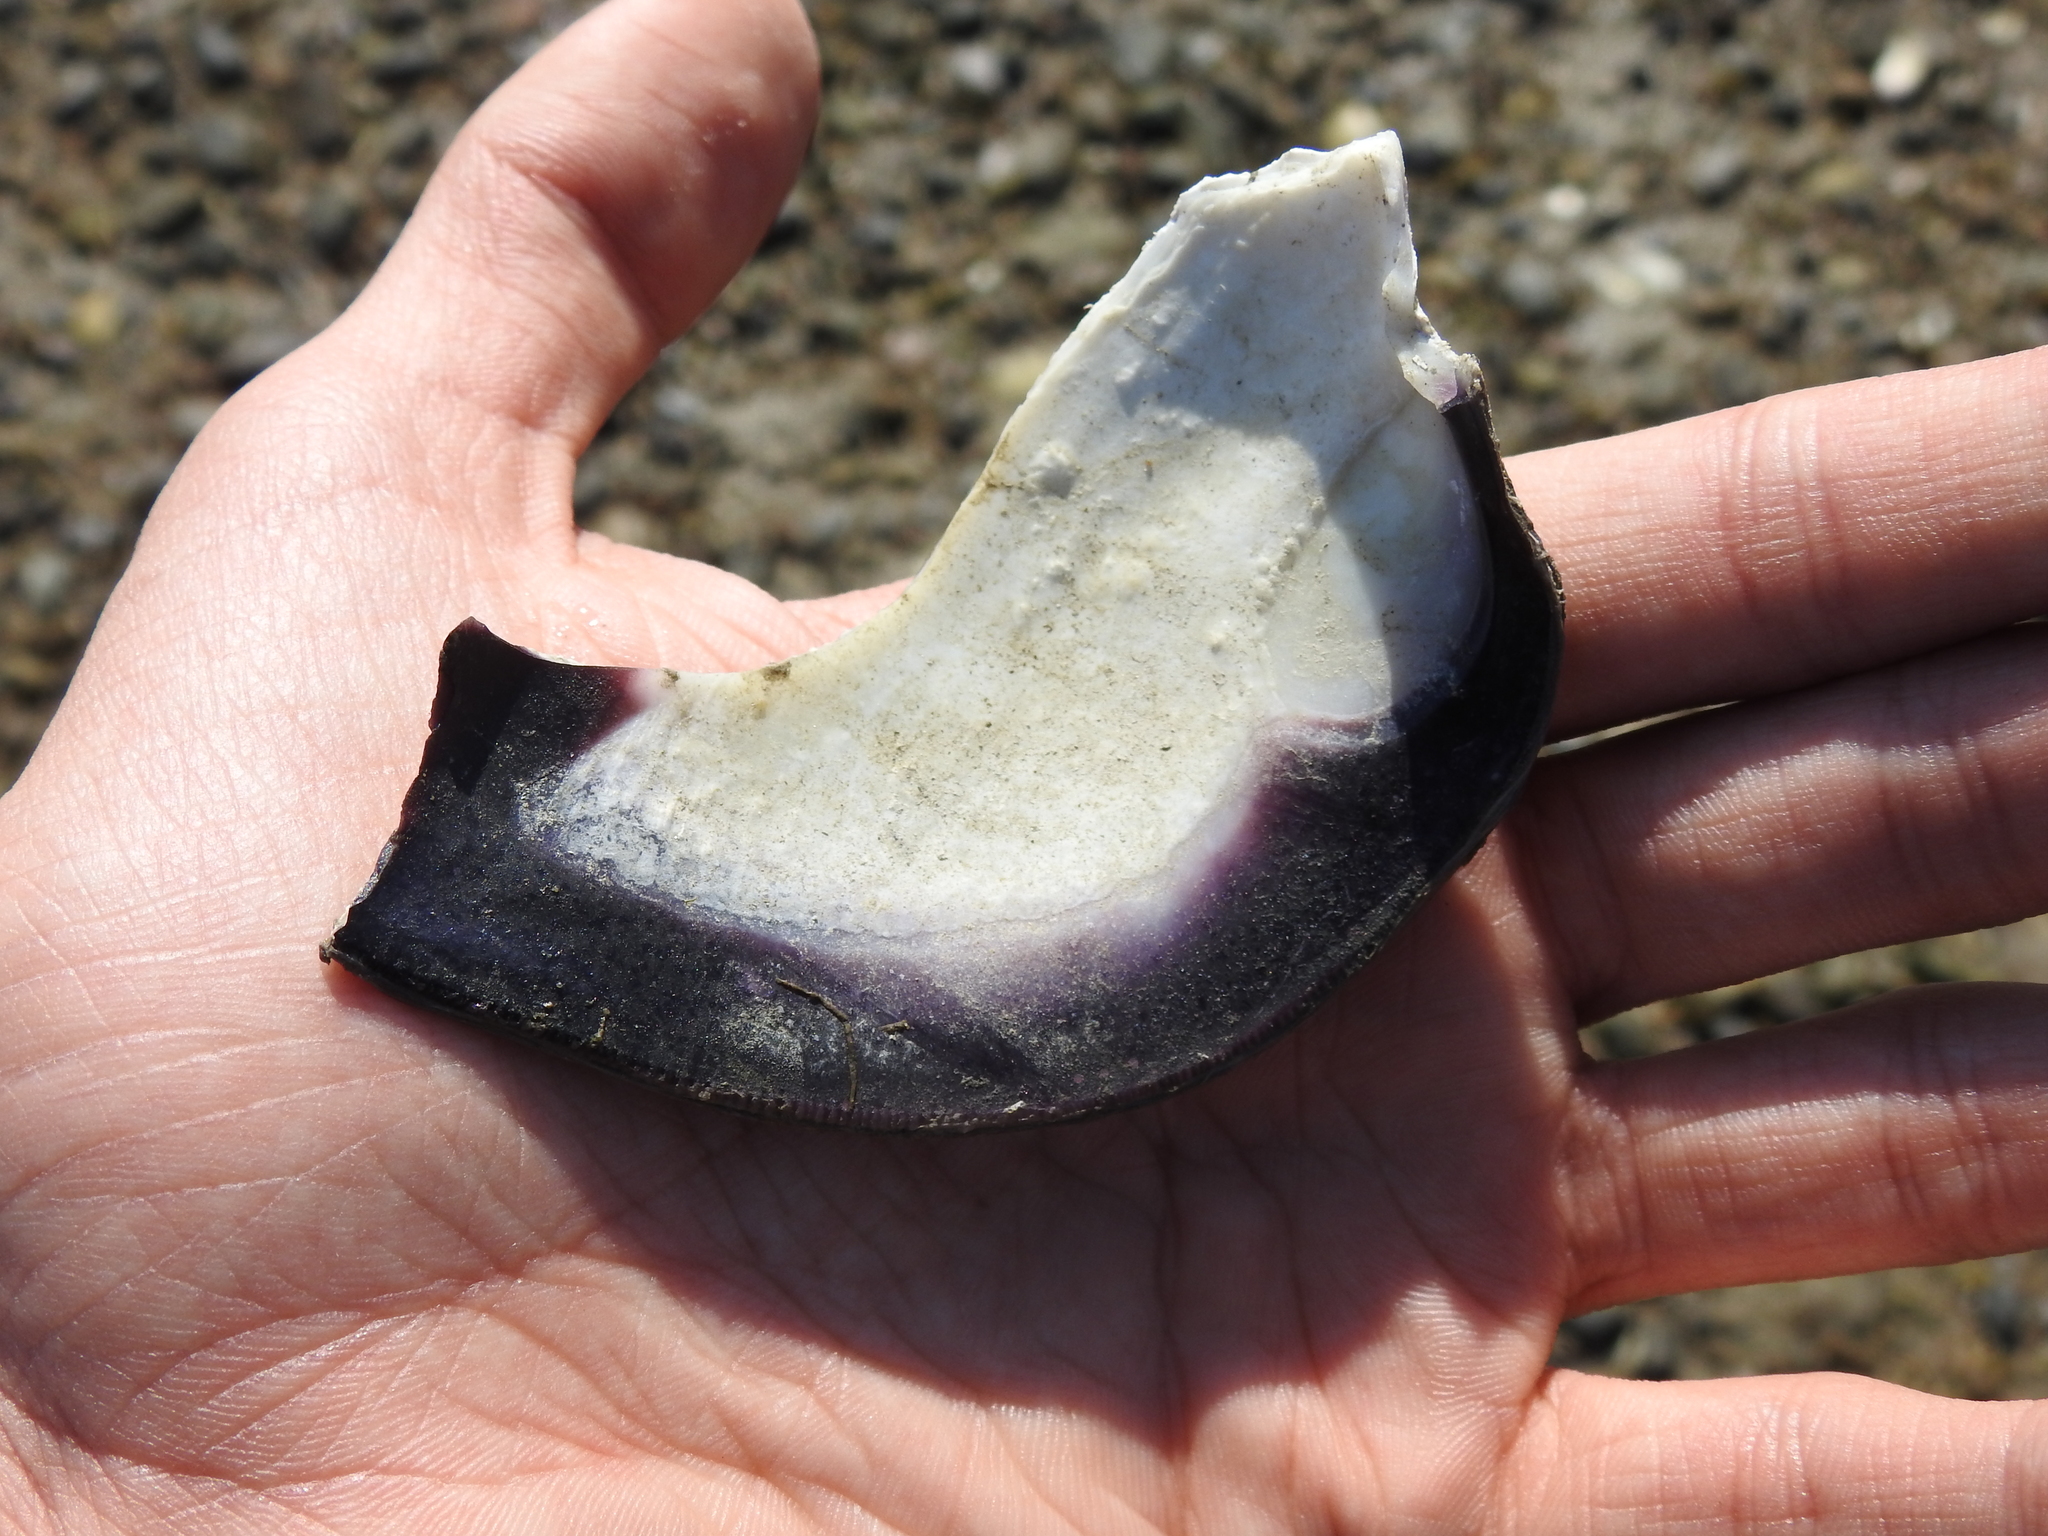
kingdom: Animalia
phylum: Mollusca
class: Bivalvia
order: Venerida
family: Veneridae
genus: Mercenaria
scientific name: Mercenaria mercenaria
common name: American hard-shelled clam
